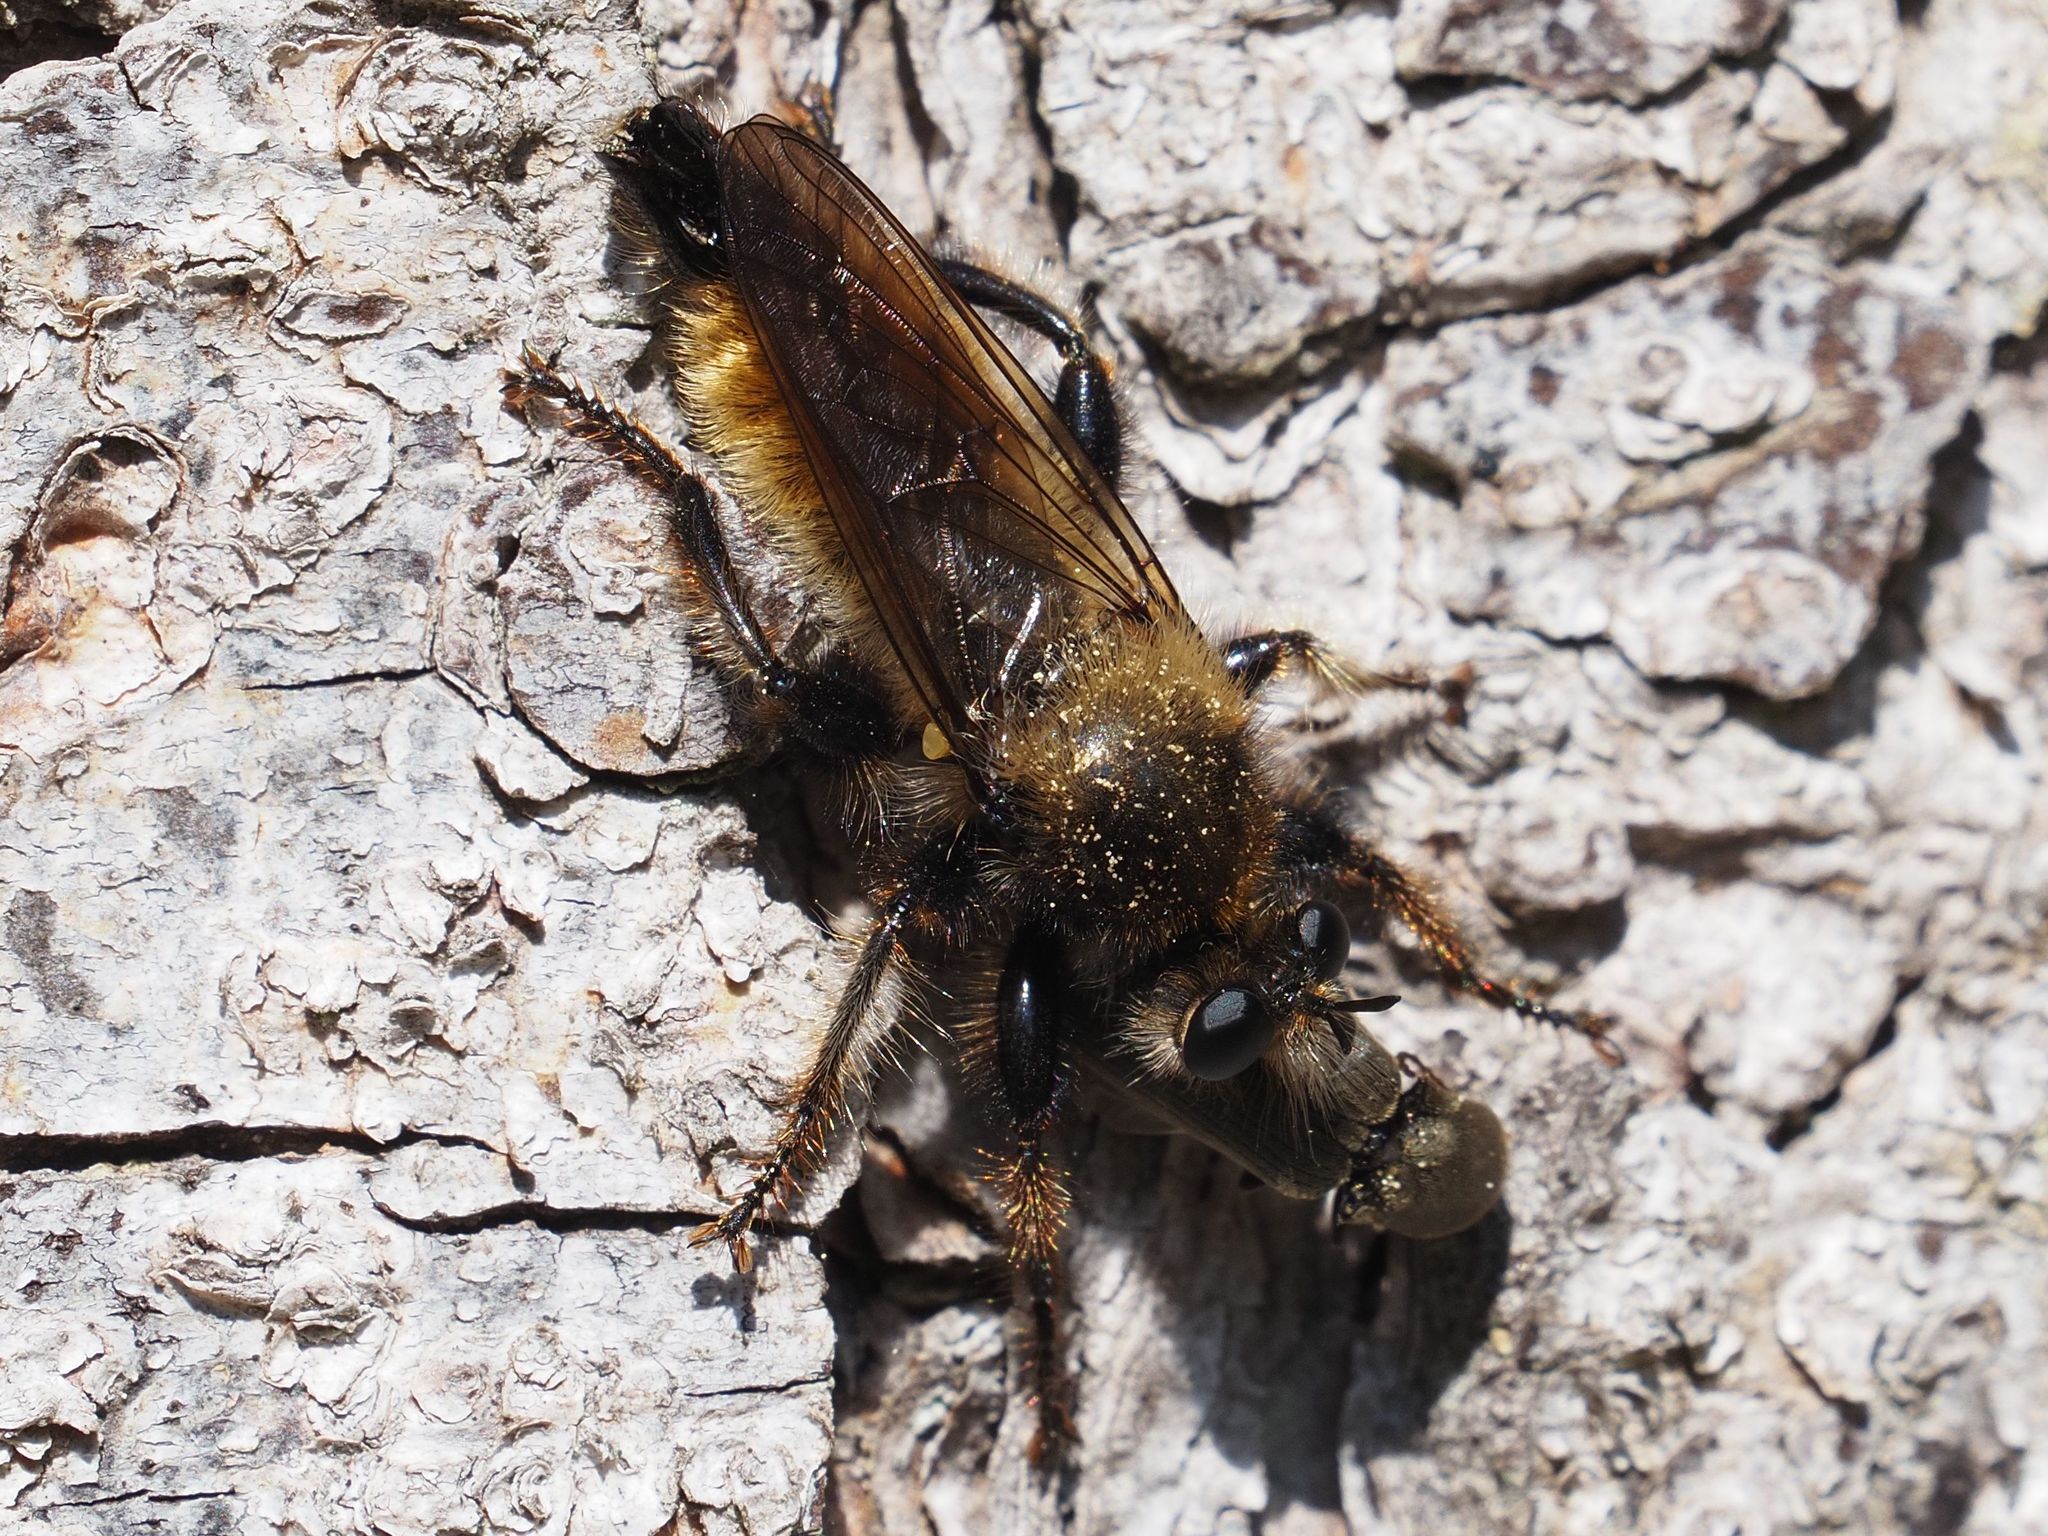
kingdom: Animalia
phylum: Arthropoda
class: Insecta
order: Diptera
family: Asilidae
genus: Laphria
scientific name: Laphria flava
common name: Bumblebee robberfly
